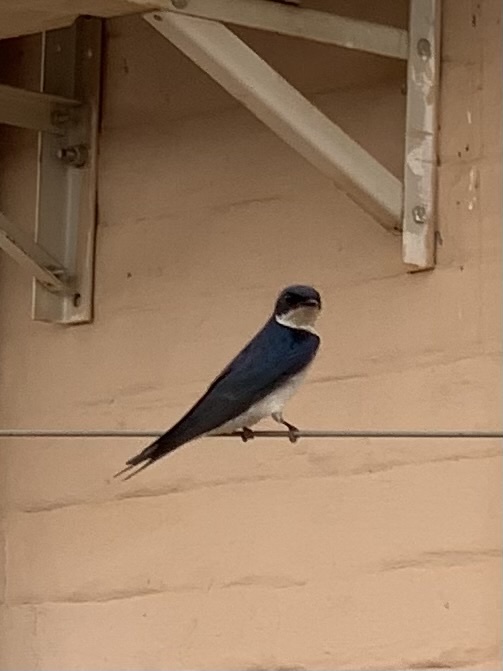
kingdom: Animalia
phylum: Chordata
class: Aves
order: Passeriformes
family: Hirundinidae
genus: Hirundo
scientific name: Hirundo dimidiata
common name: Pearl-breasted swallow
